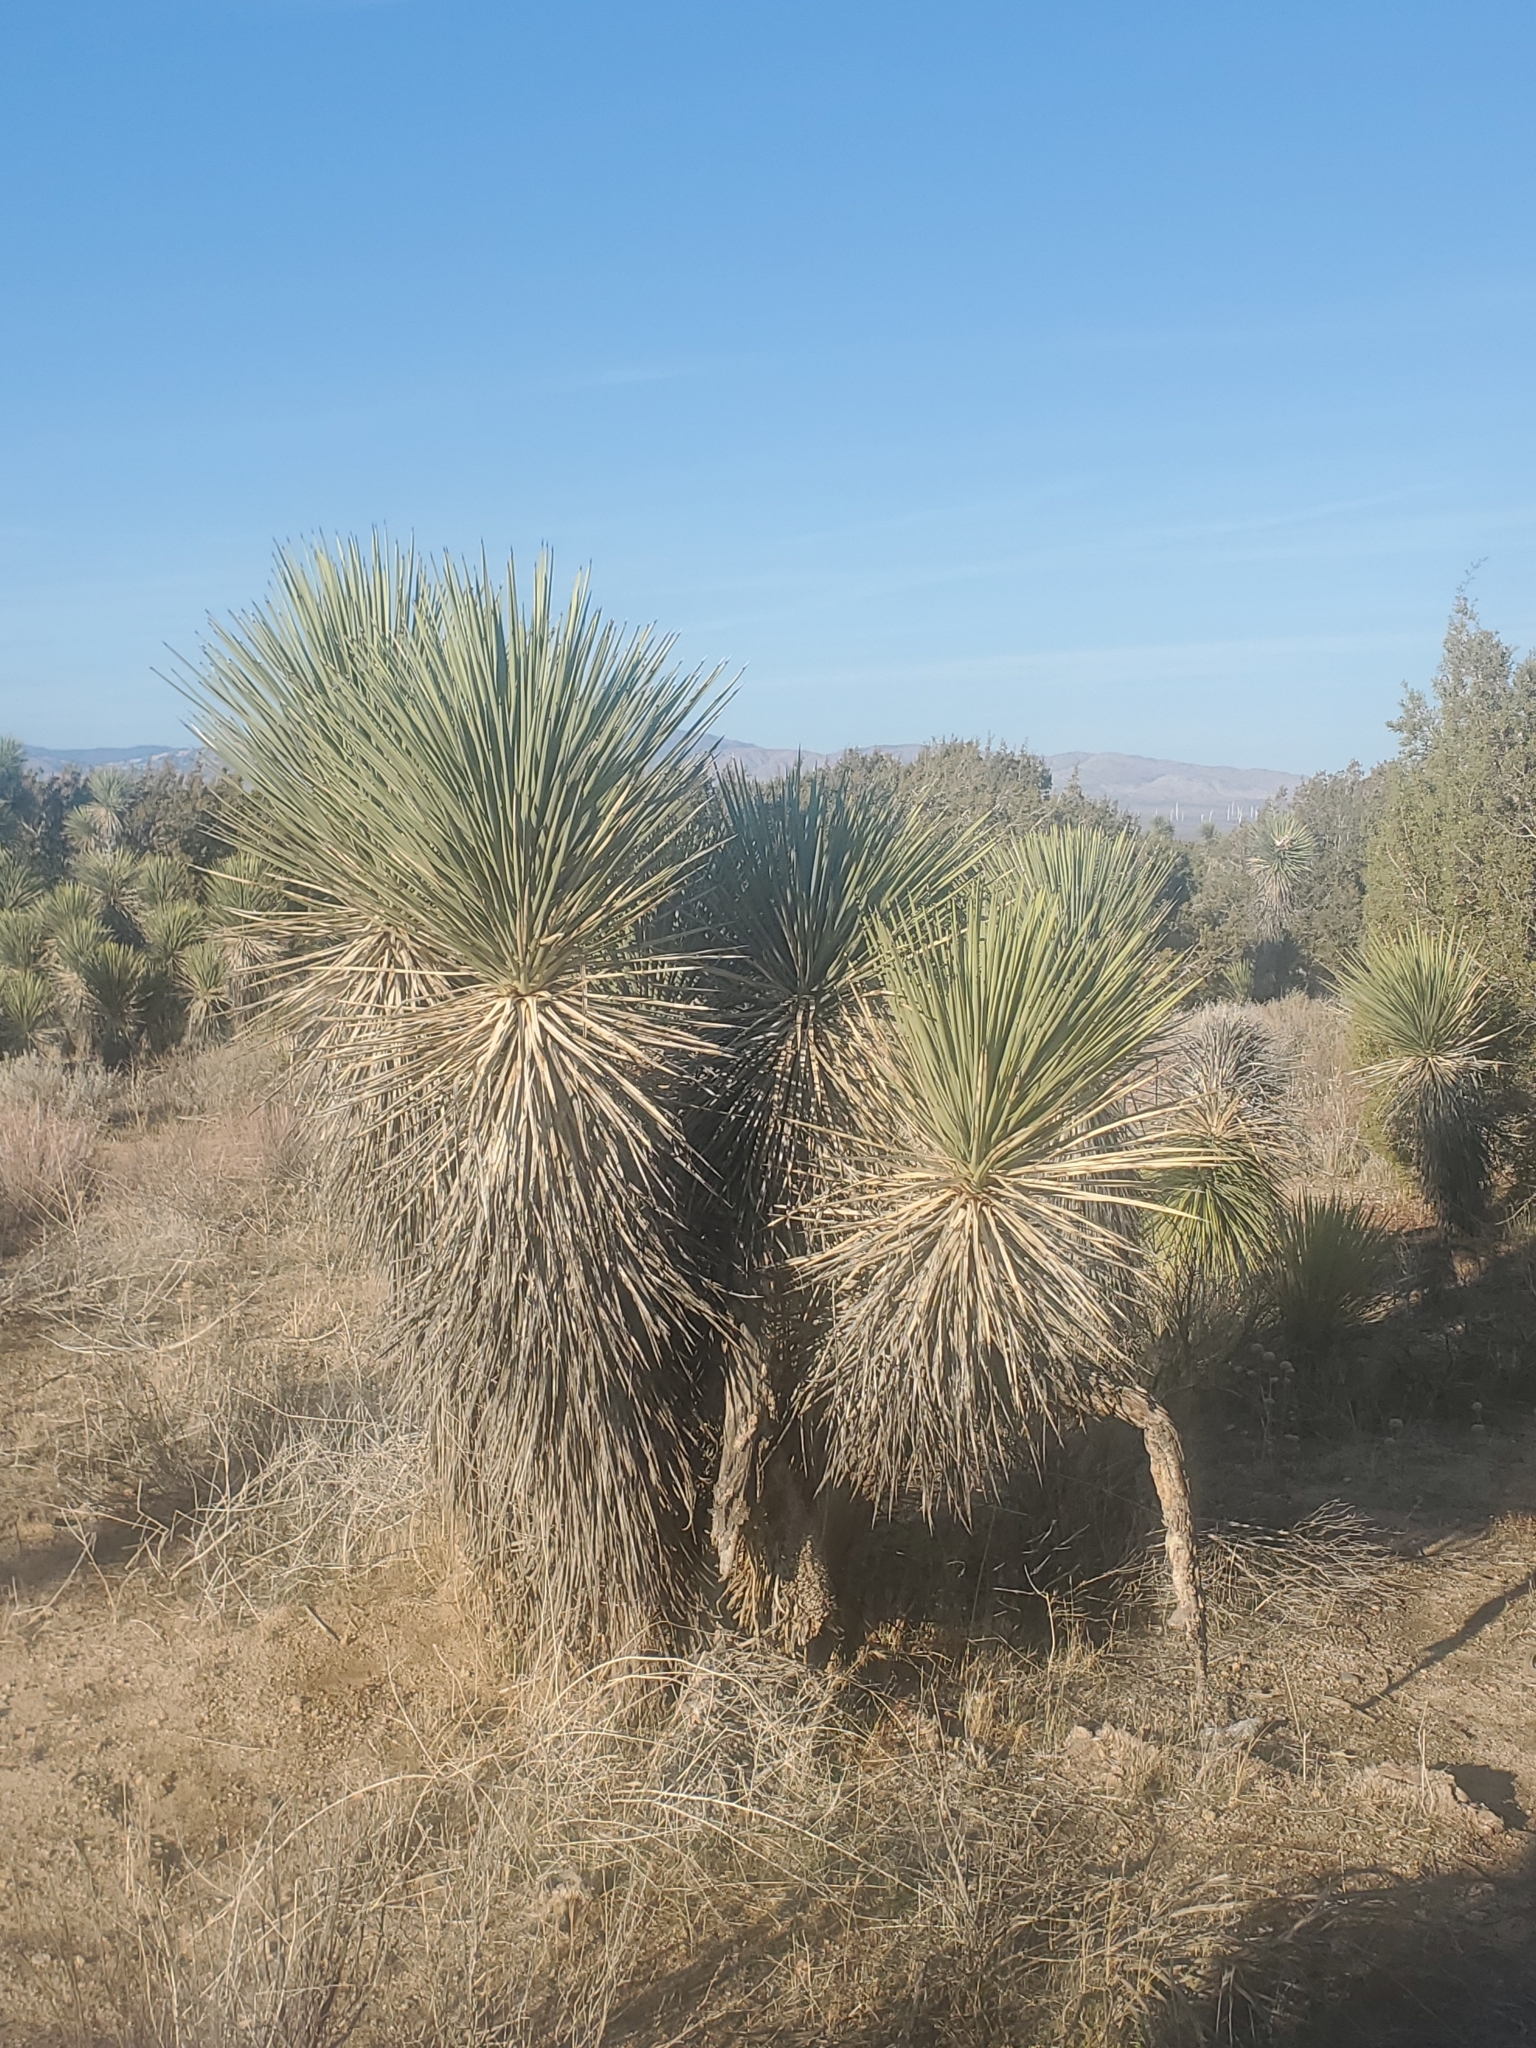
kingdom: Plantae
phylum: Tracheophyta
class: Liliopsida
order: Asparagales
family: Asparagaceae
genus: Yucca
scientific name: Yucca brevifolia
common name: Joshua tree
